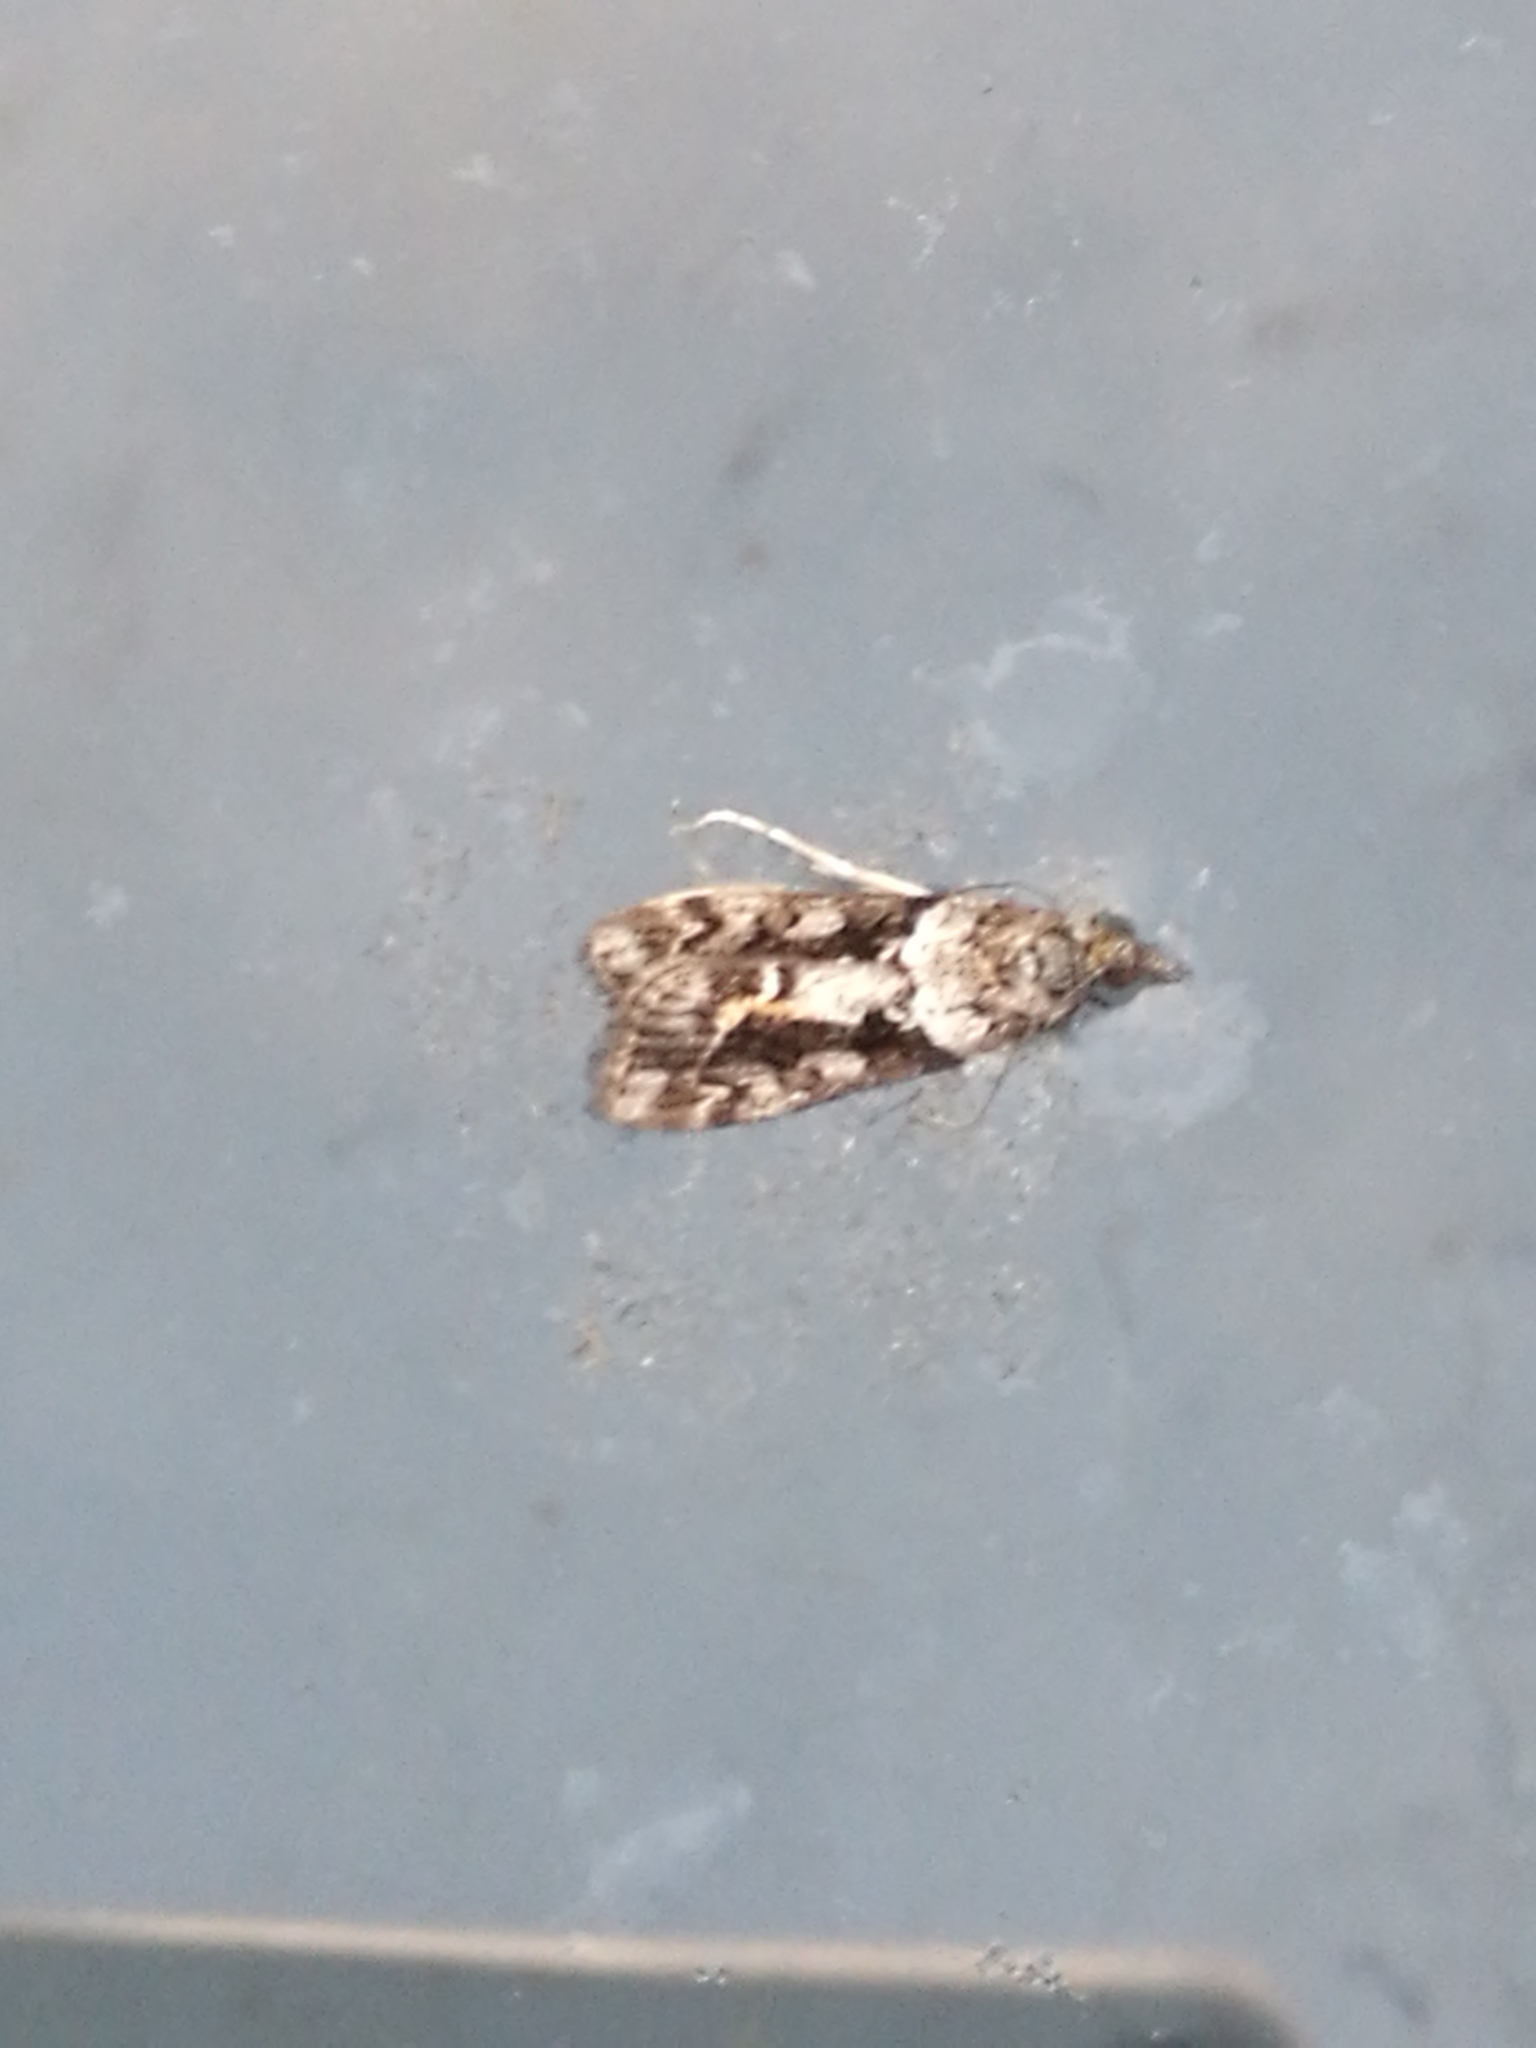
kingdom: Animalia
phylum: Arthropoda
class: Insecta
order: Lepidoptera
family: Crambidae
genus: Eudonia
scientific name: Eudonia submarginalis
